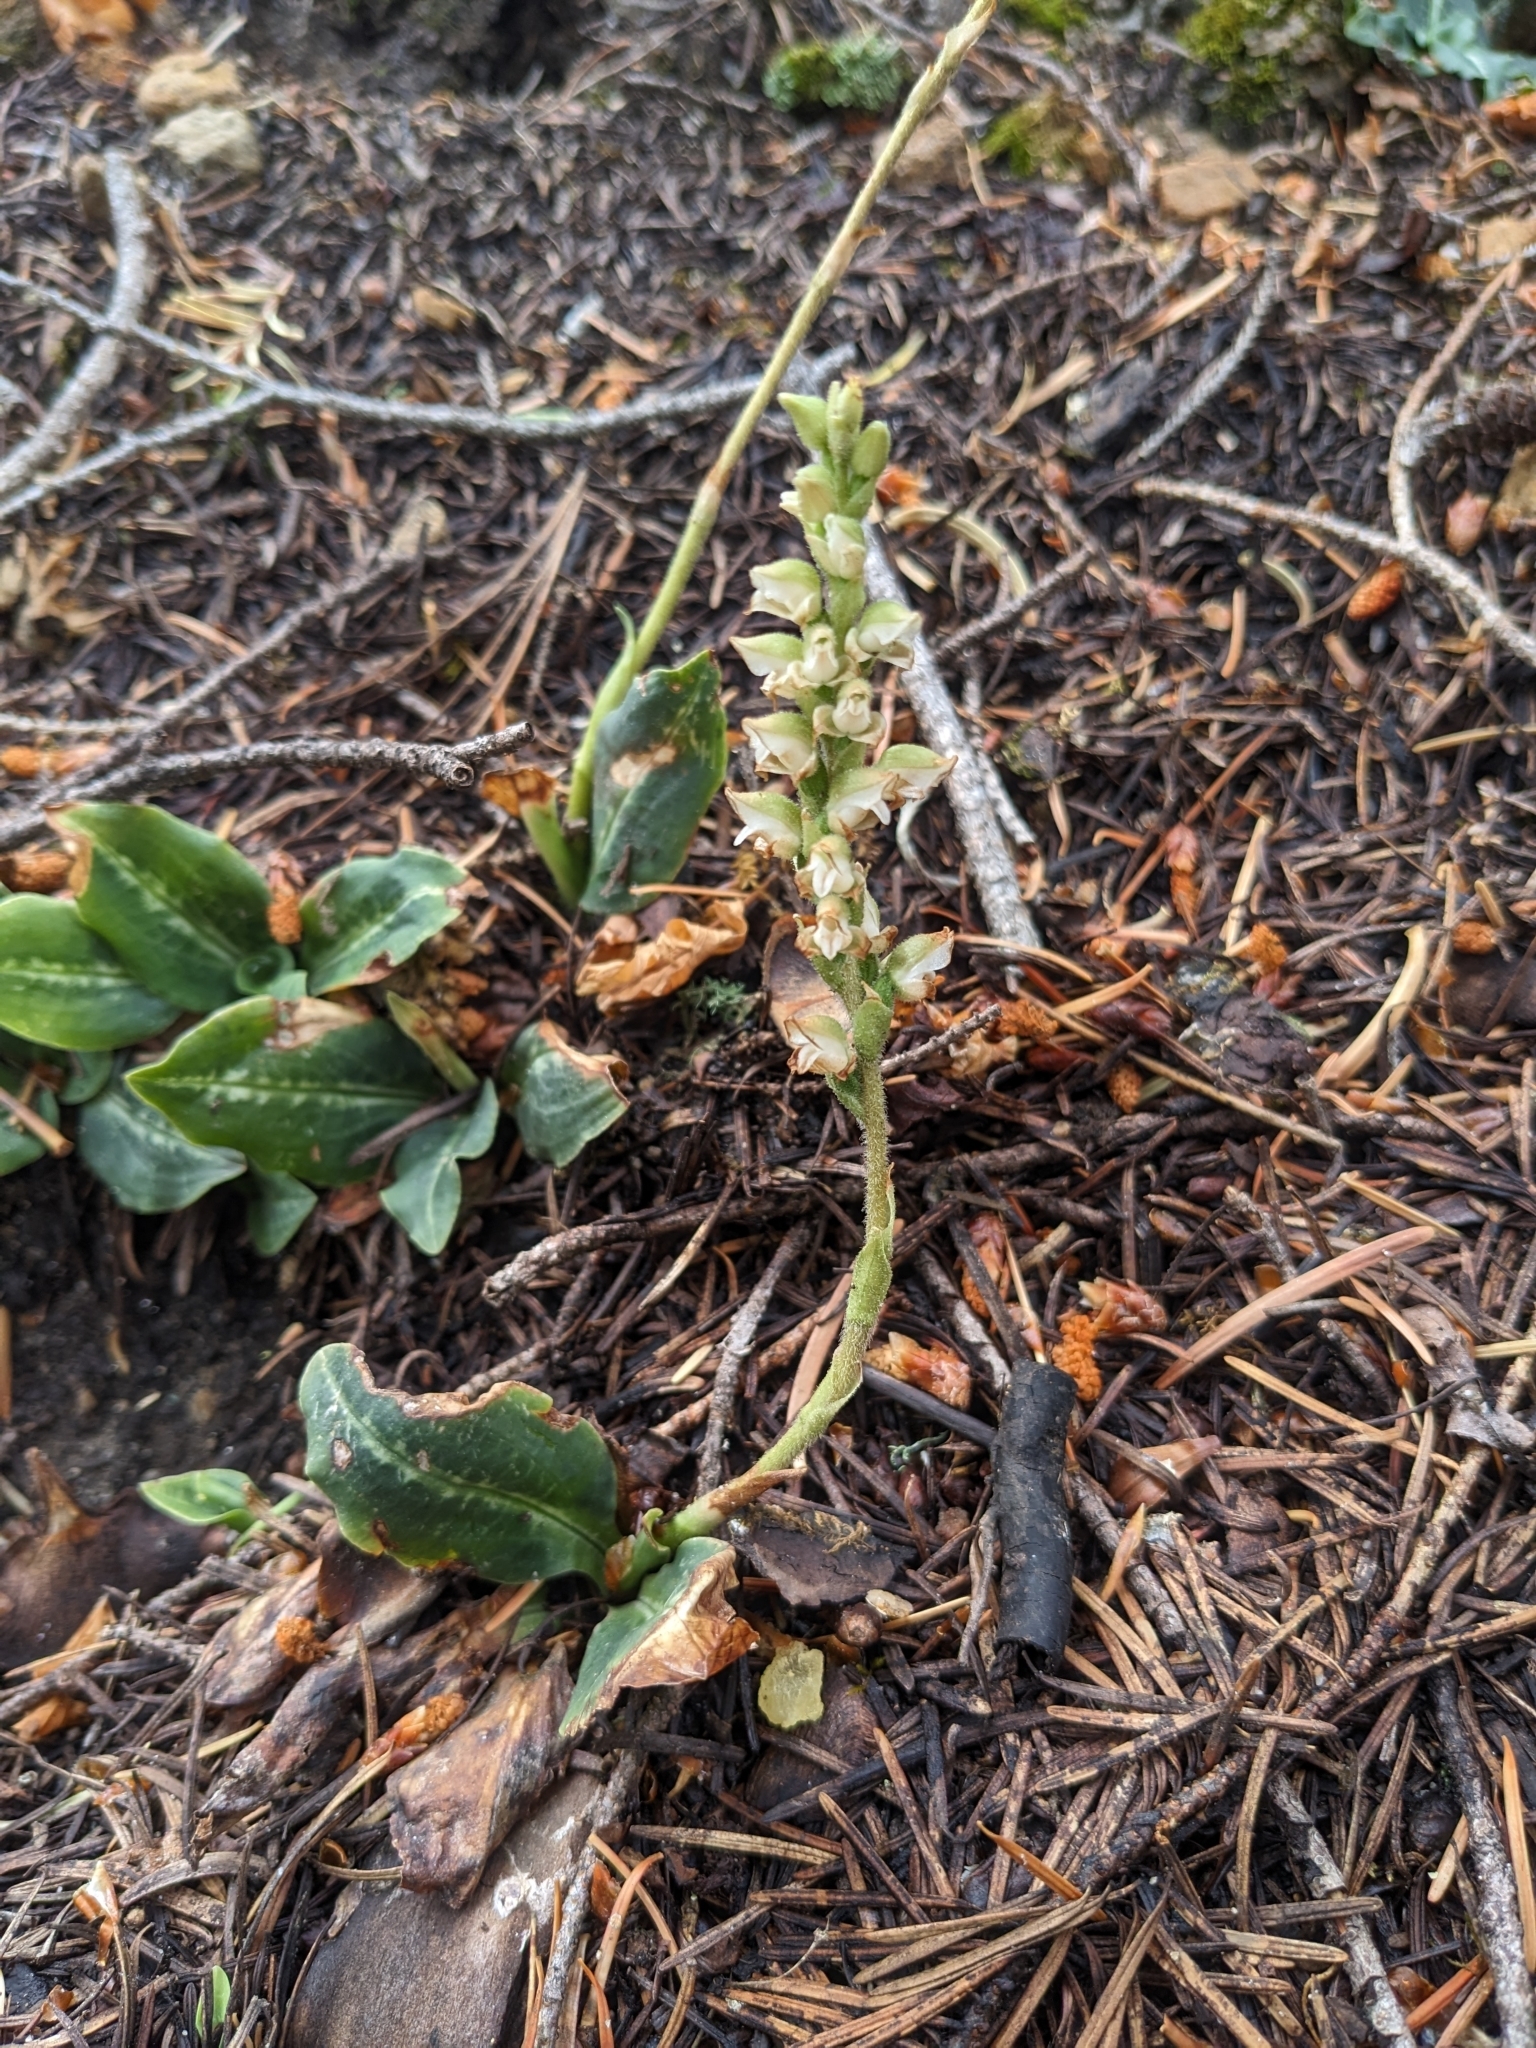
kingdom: Plantae
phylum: Tracheophyta
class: Liliopsida
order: Asparagales
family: Orchidaceae
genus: Goodyera
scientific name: Goodyera oblongifolia
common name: Giant rattlesnake-plantain
